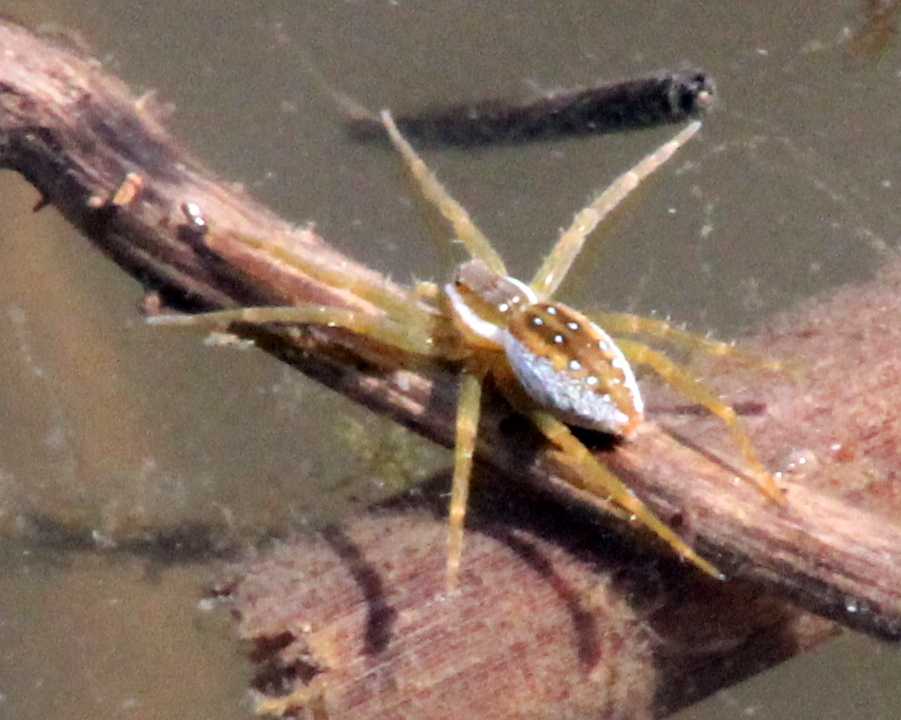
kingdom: Animalia
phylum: Arthropoda
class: Arachnida
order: Araneae
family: Pisauridae
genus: Dolomedes
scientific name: Dolomedes triton
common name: Six-spotted fishing spider
